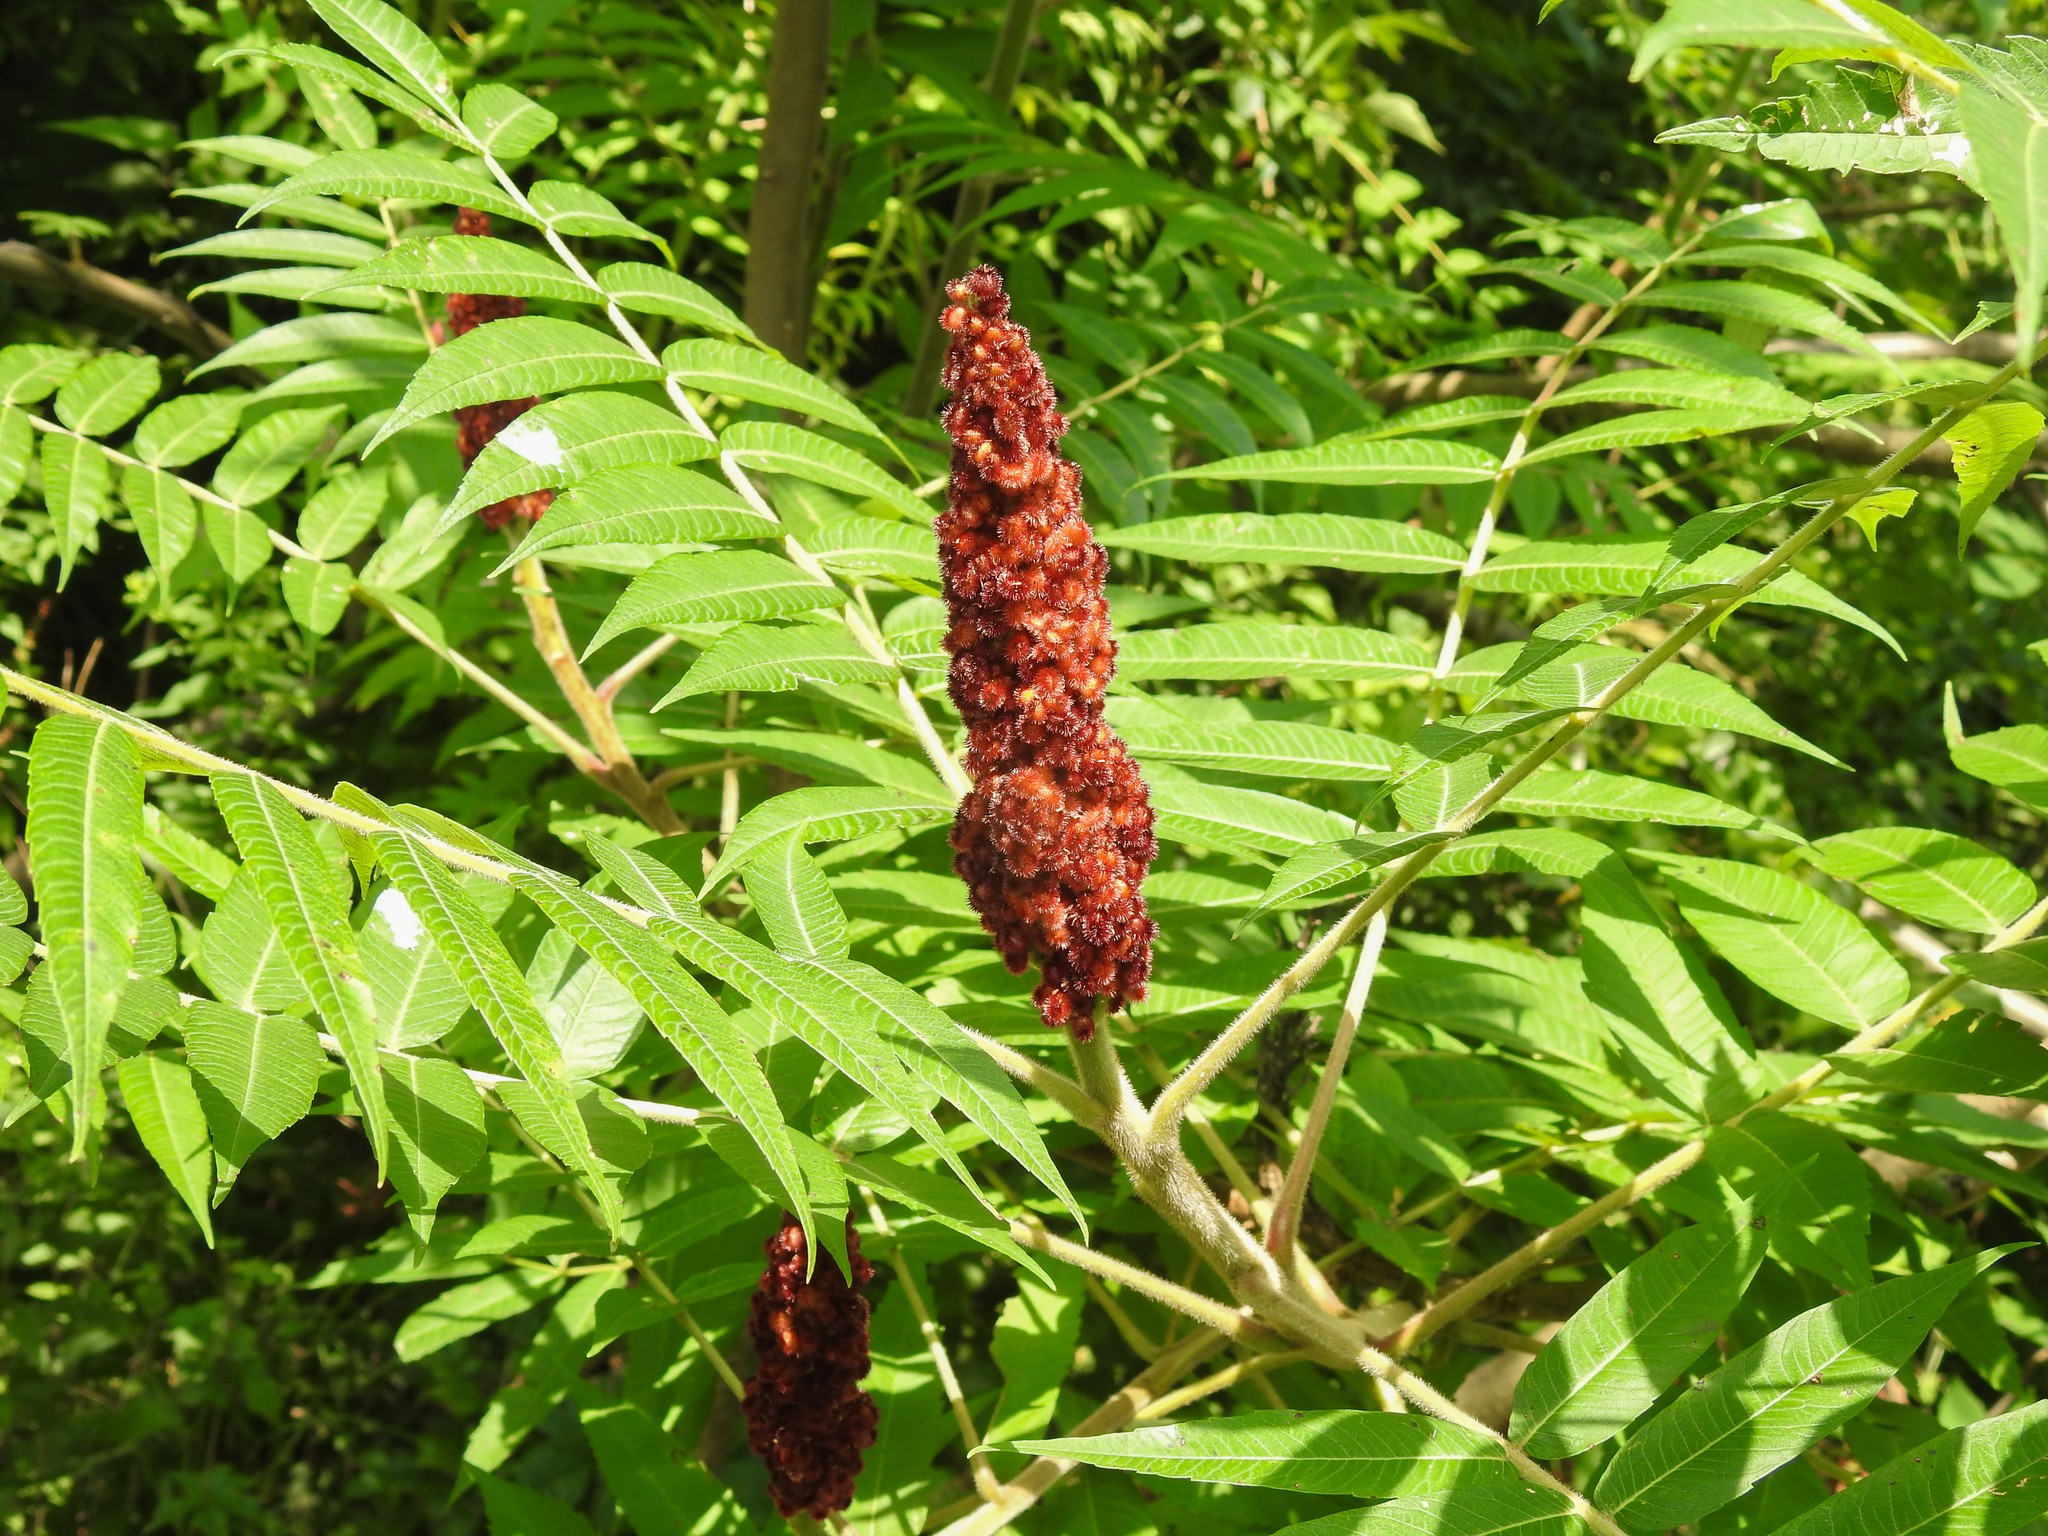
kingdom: Plantae
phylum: Tracheophyta
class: Magnoliopsida
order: Sapindales
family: Anacardiaceae
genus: Rhus
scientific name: Rhus typhina
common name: Staghorn sumac
